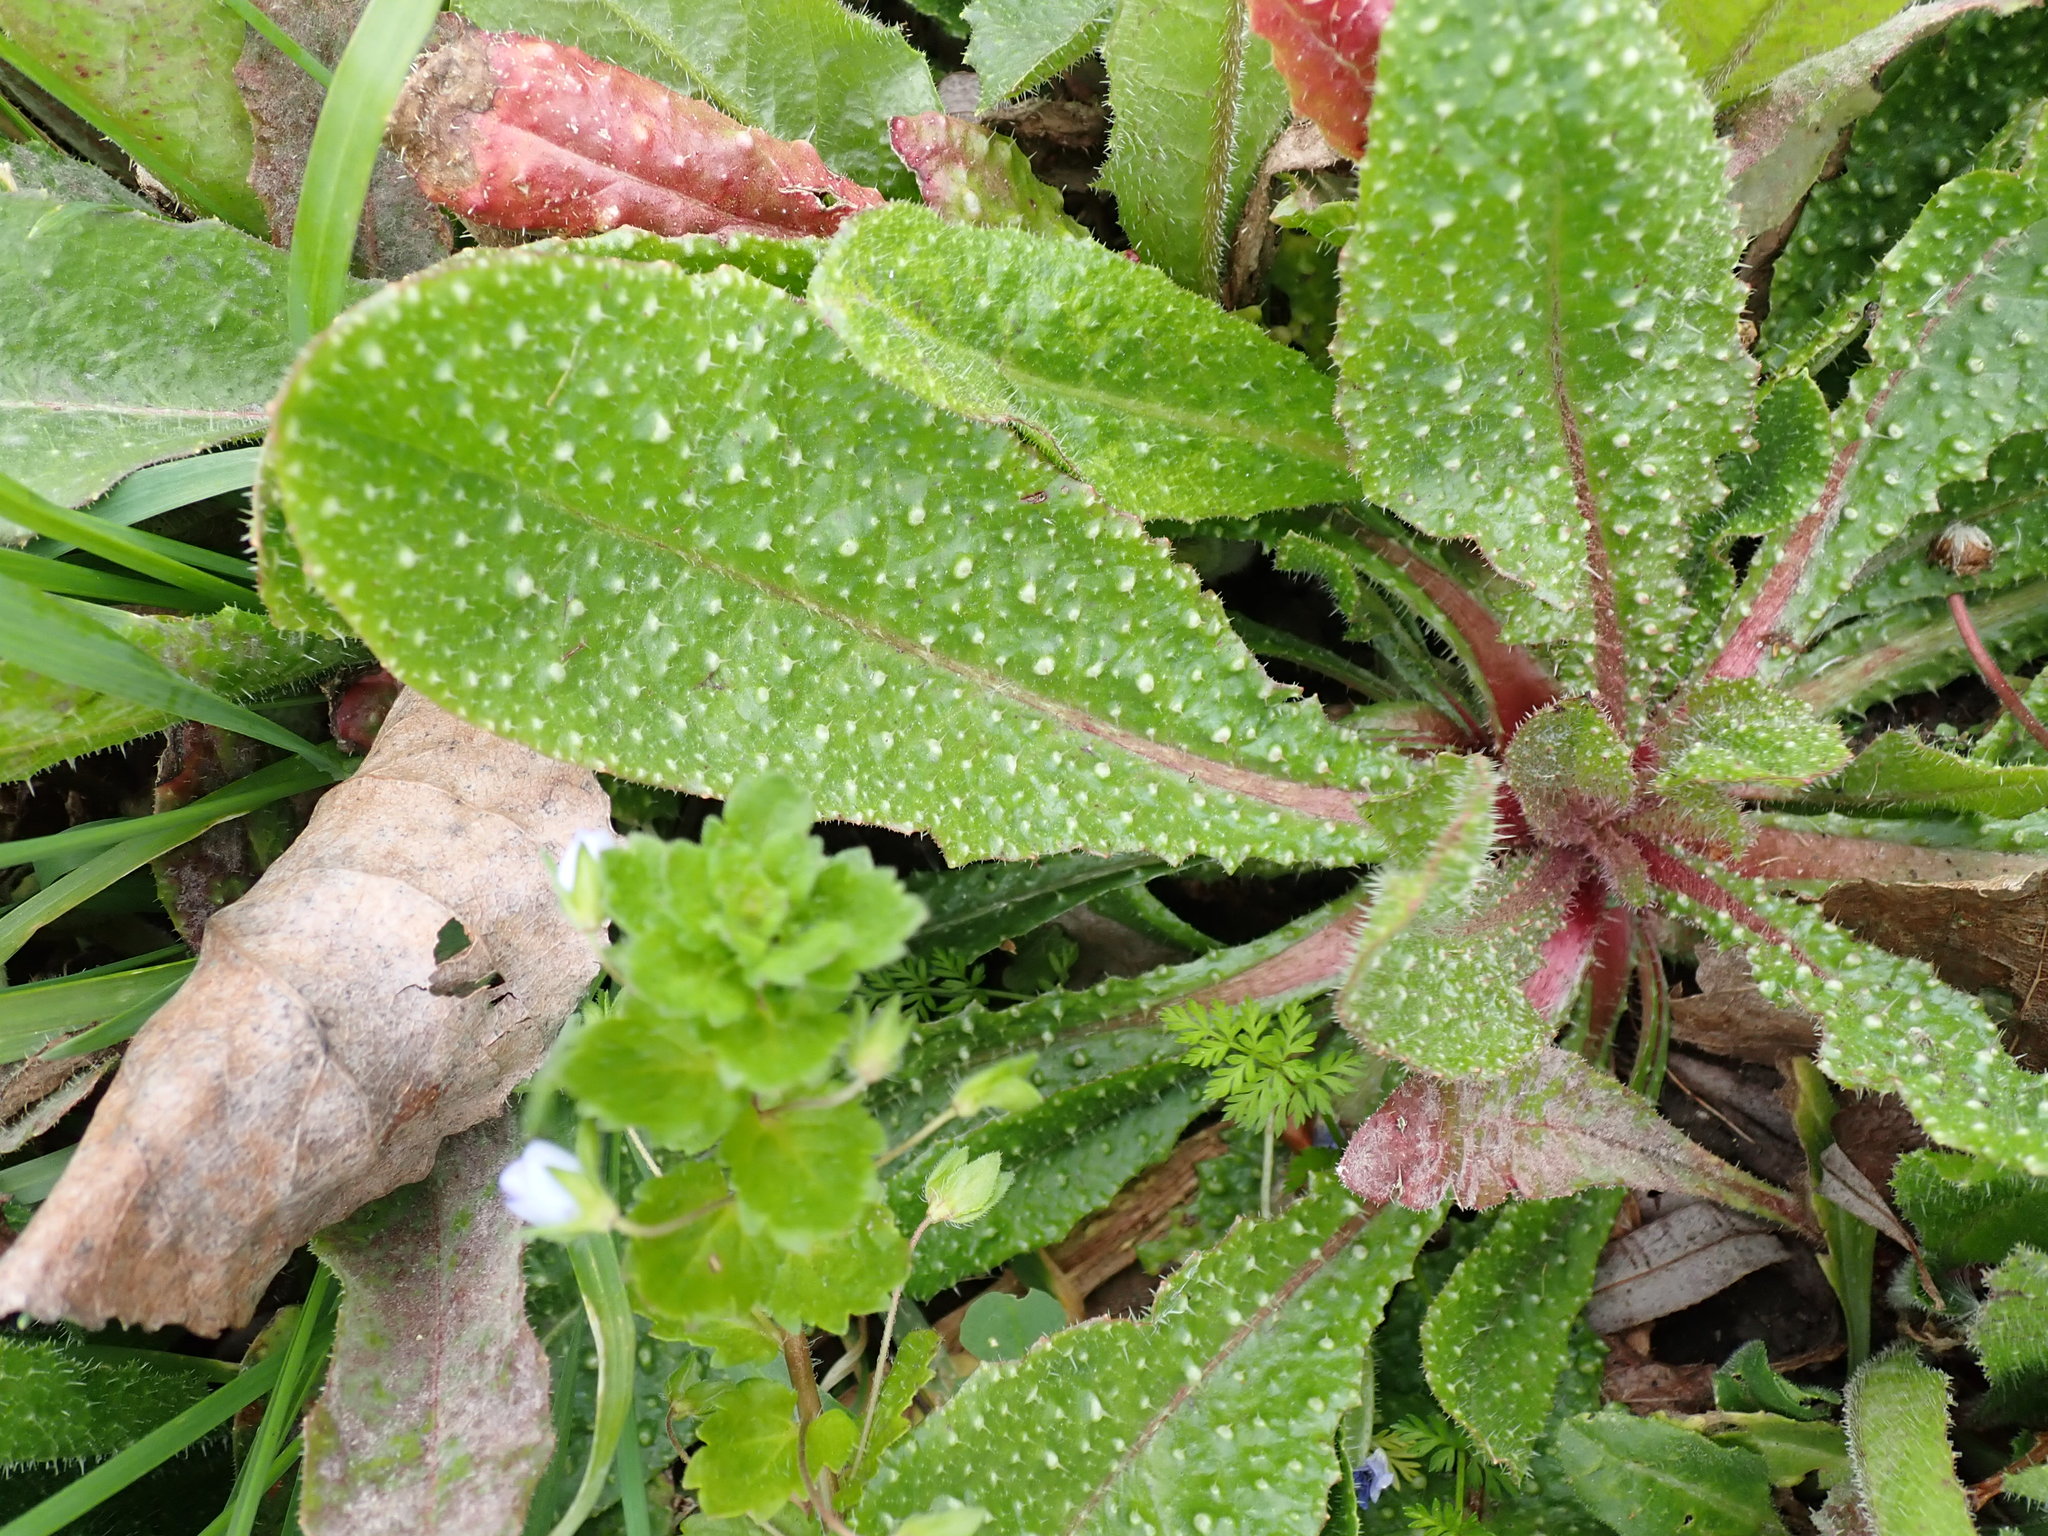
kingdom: Plantae
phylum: Tracheophyta
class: Magnoliopsida
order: Asterales
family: Asteraceae
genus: Helminthotheca
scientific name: Helminthotheca echioides
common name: Ox-tongue
